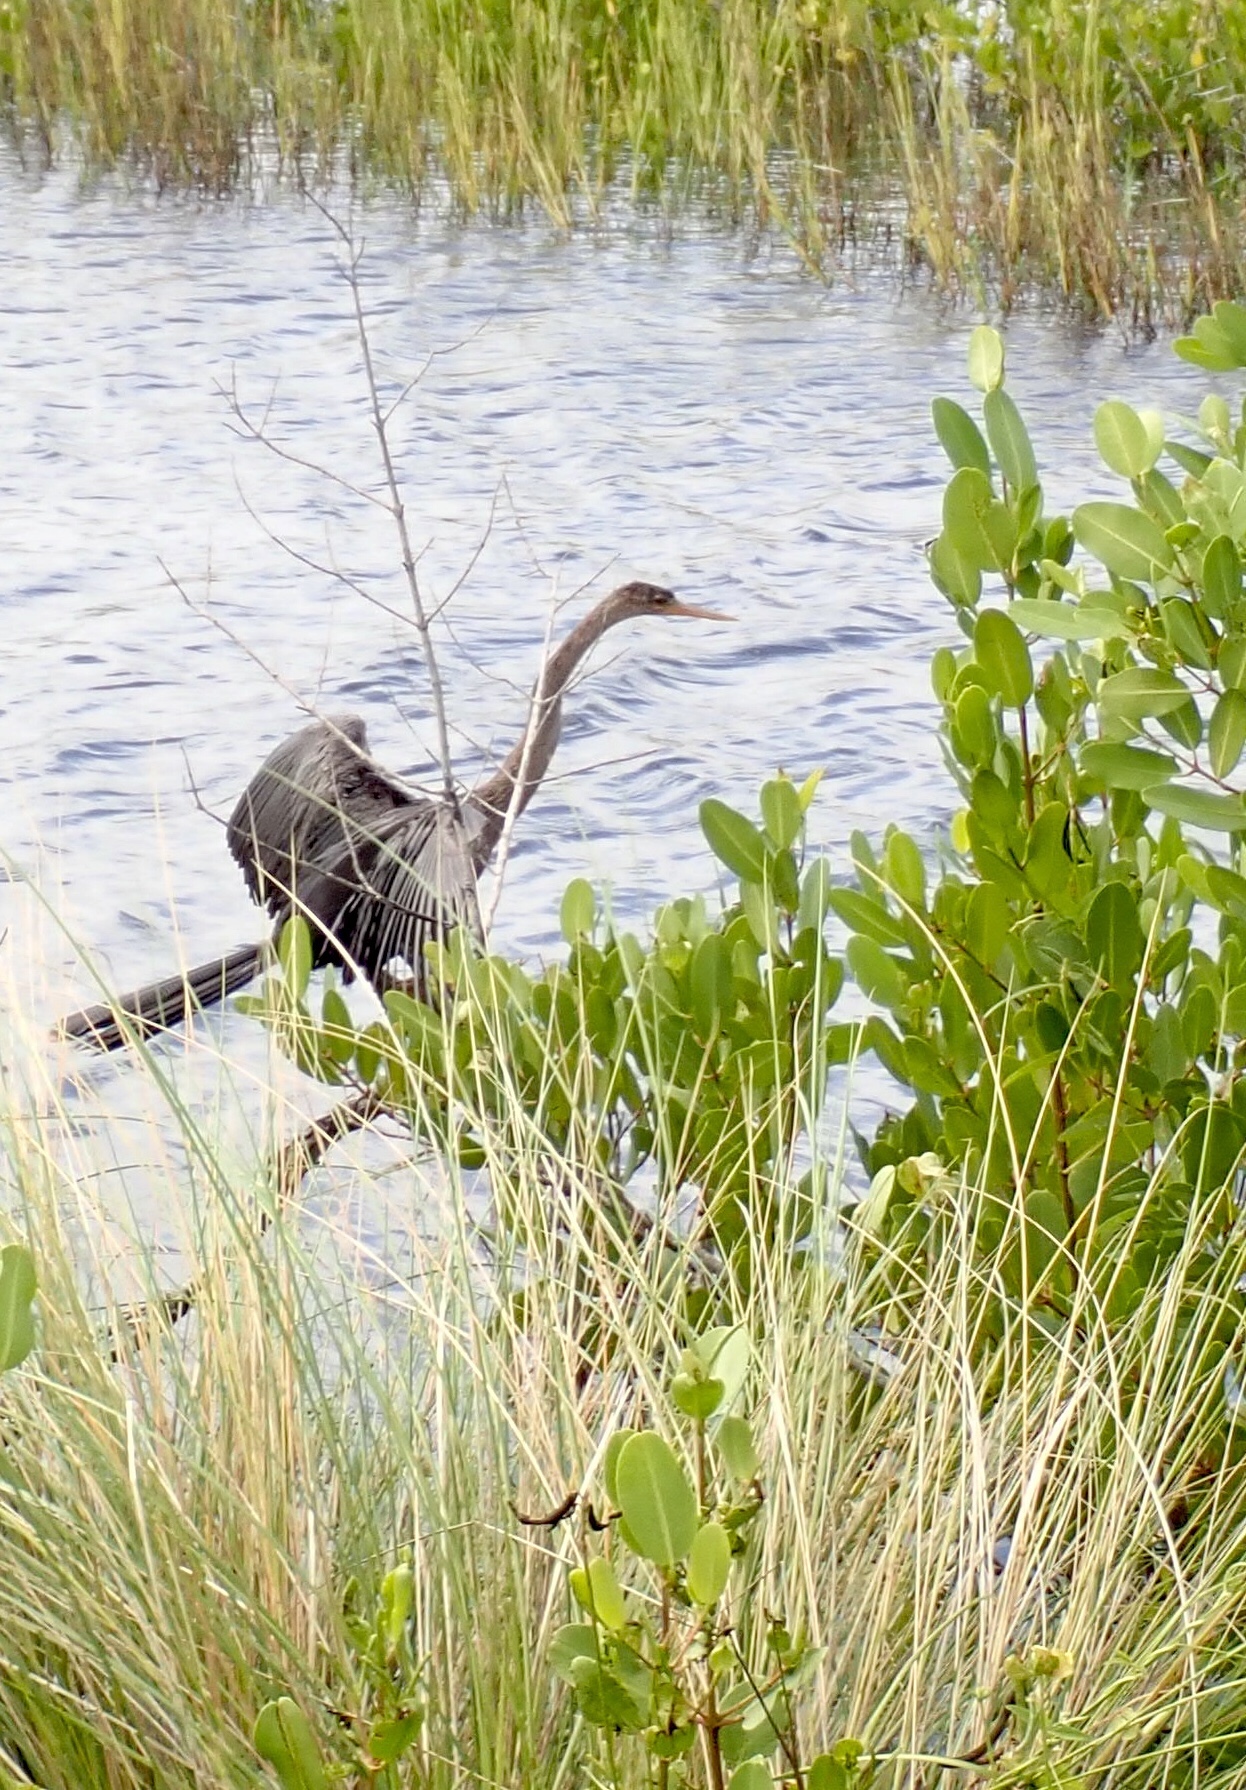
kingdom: Animalia
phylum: Chordata
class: Aves
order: Suliformes
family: Anhingidae
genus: Anhinga
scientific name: Anhinga anhinga
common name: Anhinga
